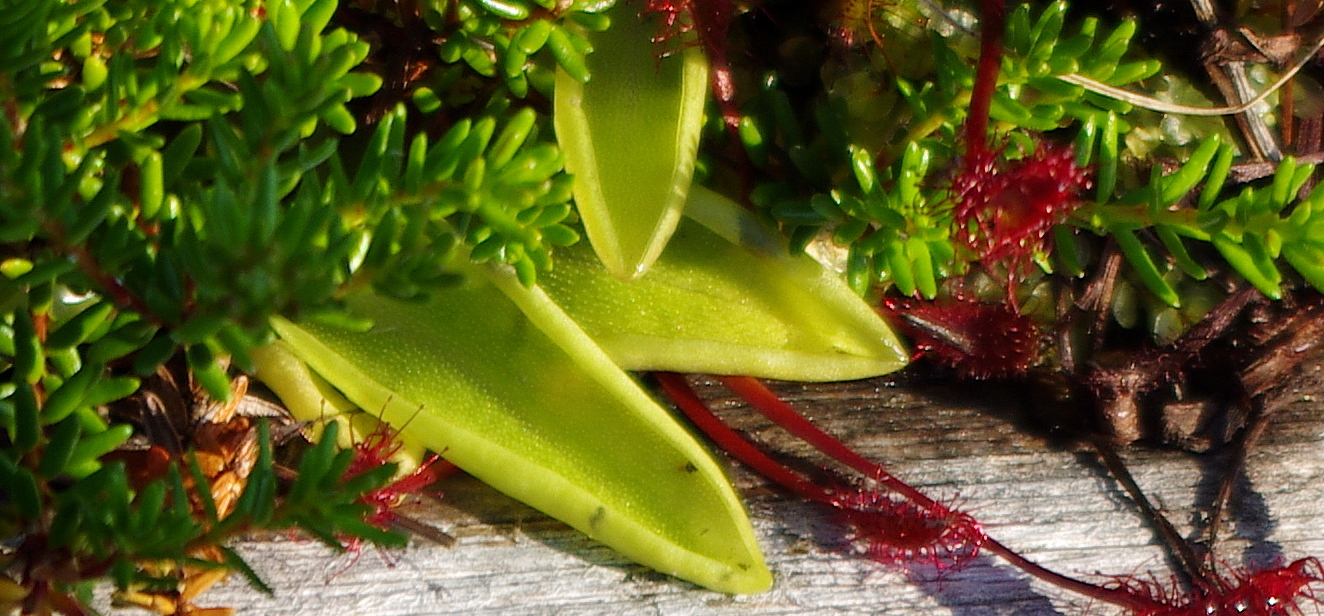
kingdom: Plantae
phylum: Tracheophyta
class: Magnoliopsida
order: Lamiales
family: Lentibulariaceae
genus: Pinguicula
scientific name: Pinguicula vulgaris
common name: Common butterwort
